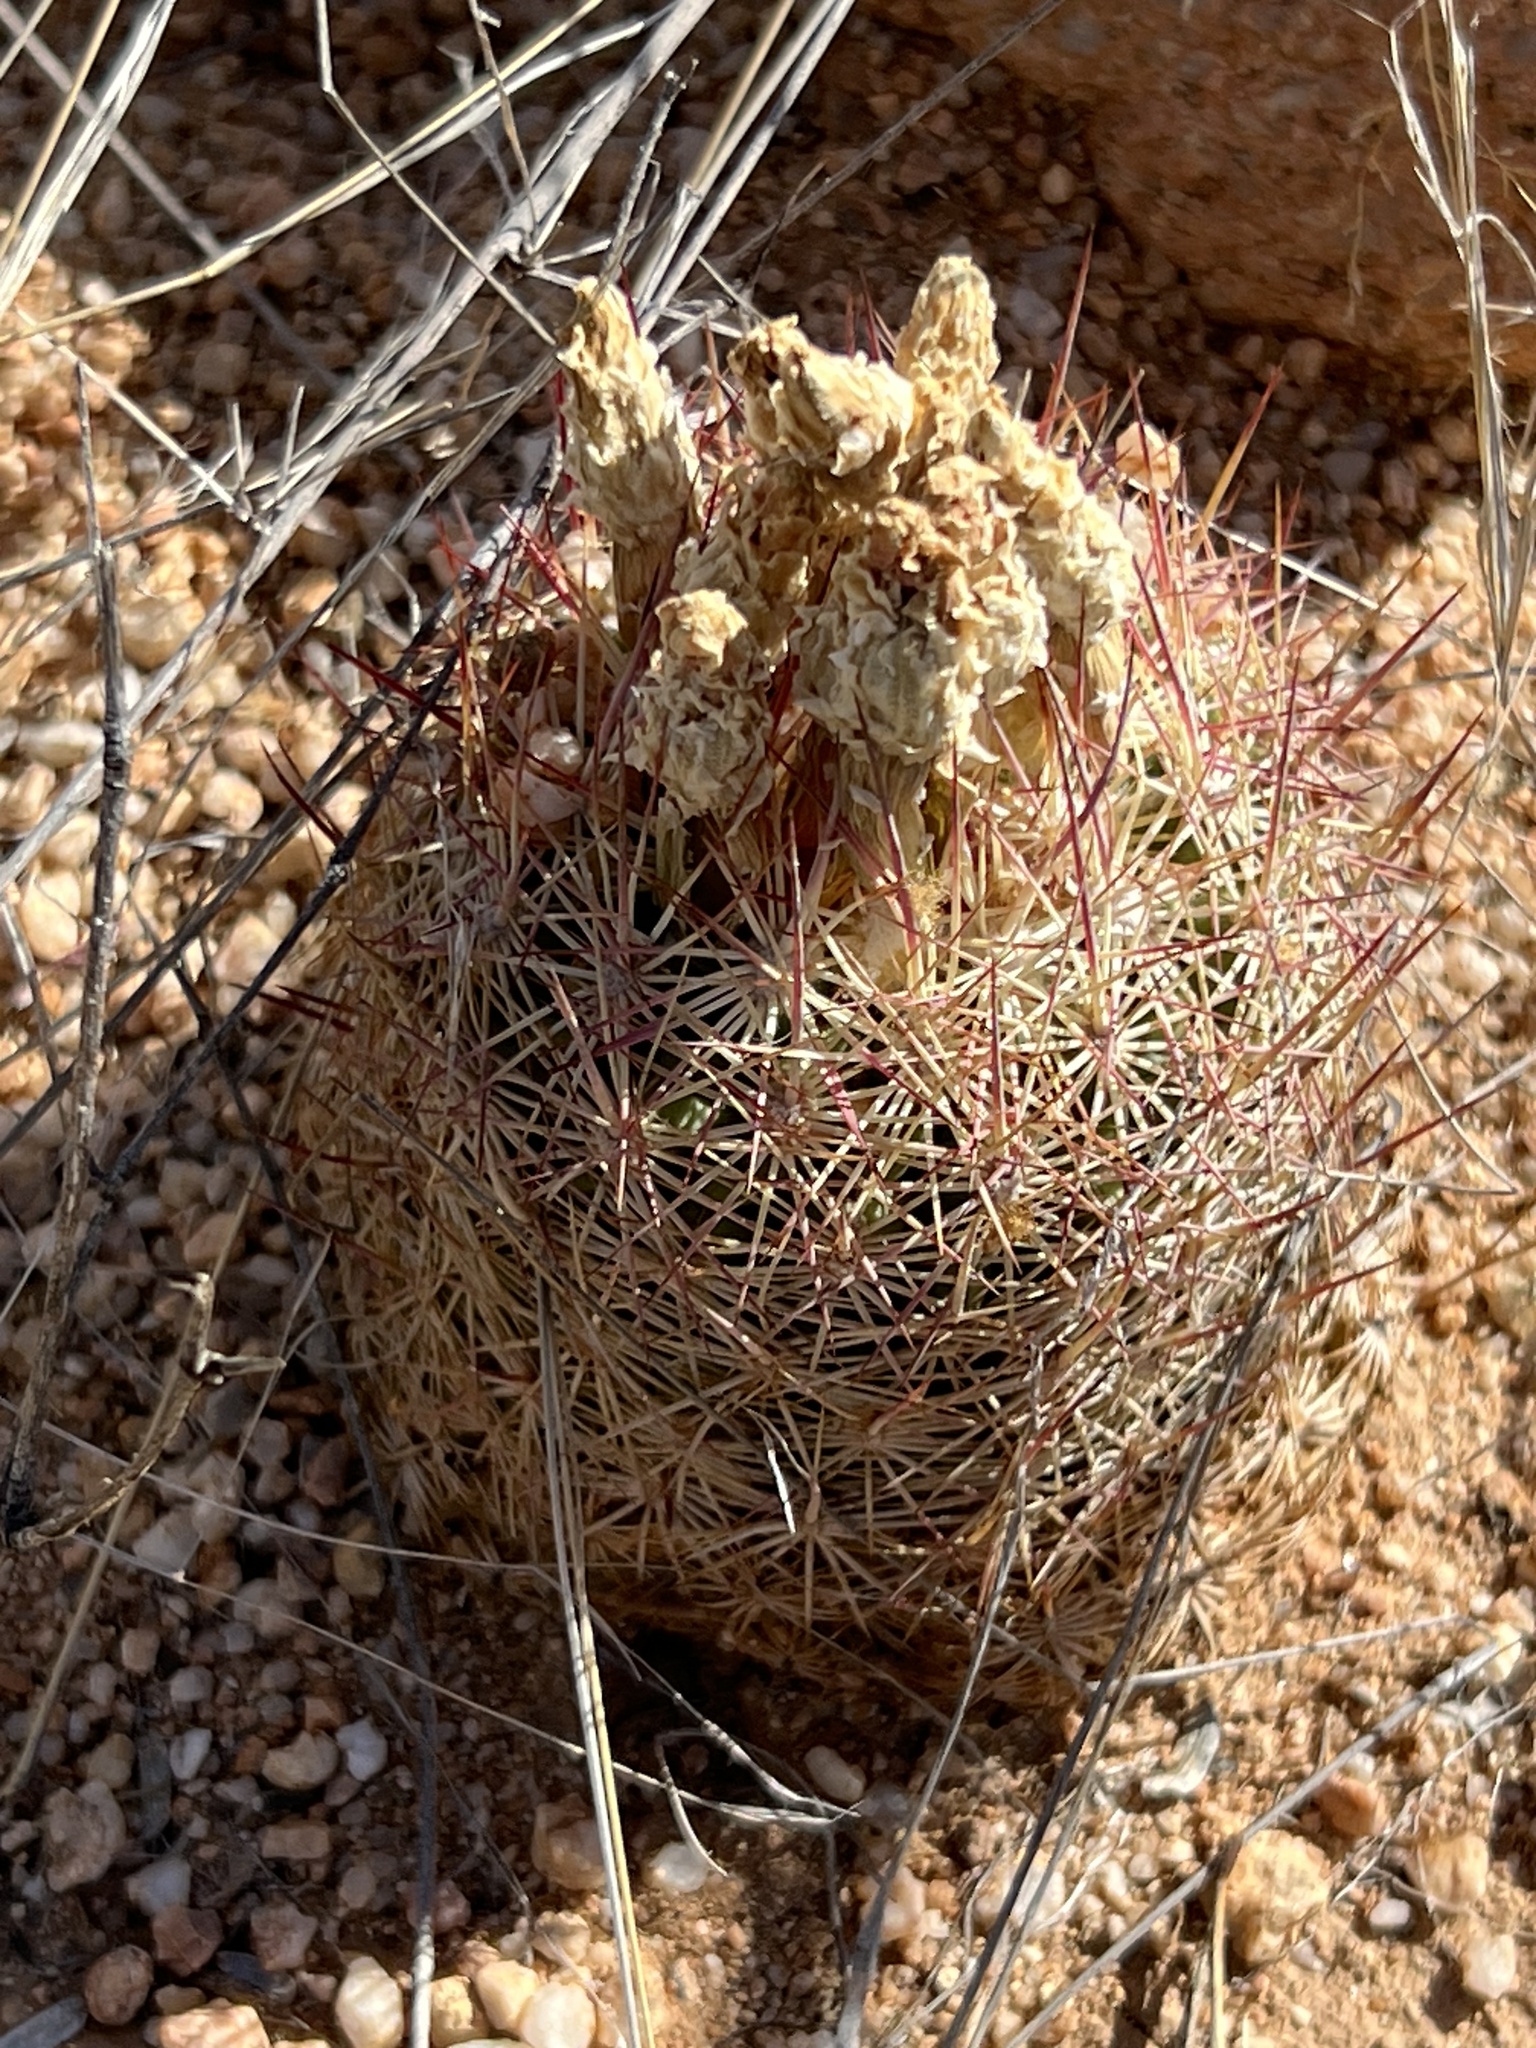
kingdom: Plantae
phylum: Tracheophyta
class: Magnoliopsida
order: Caryophyllales
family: Cactaceae
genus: Sclerocactus
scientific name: Sclerocactus johnsonii
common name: Eight-spine fishhook cactus
